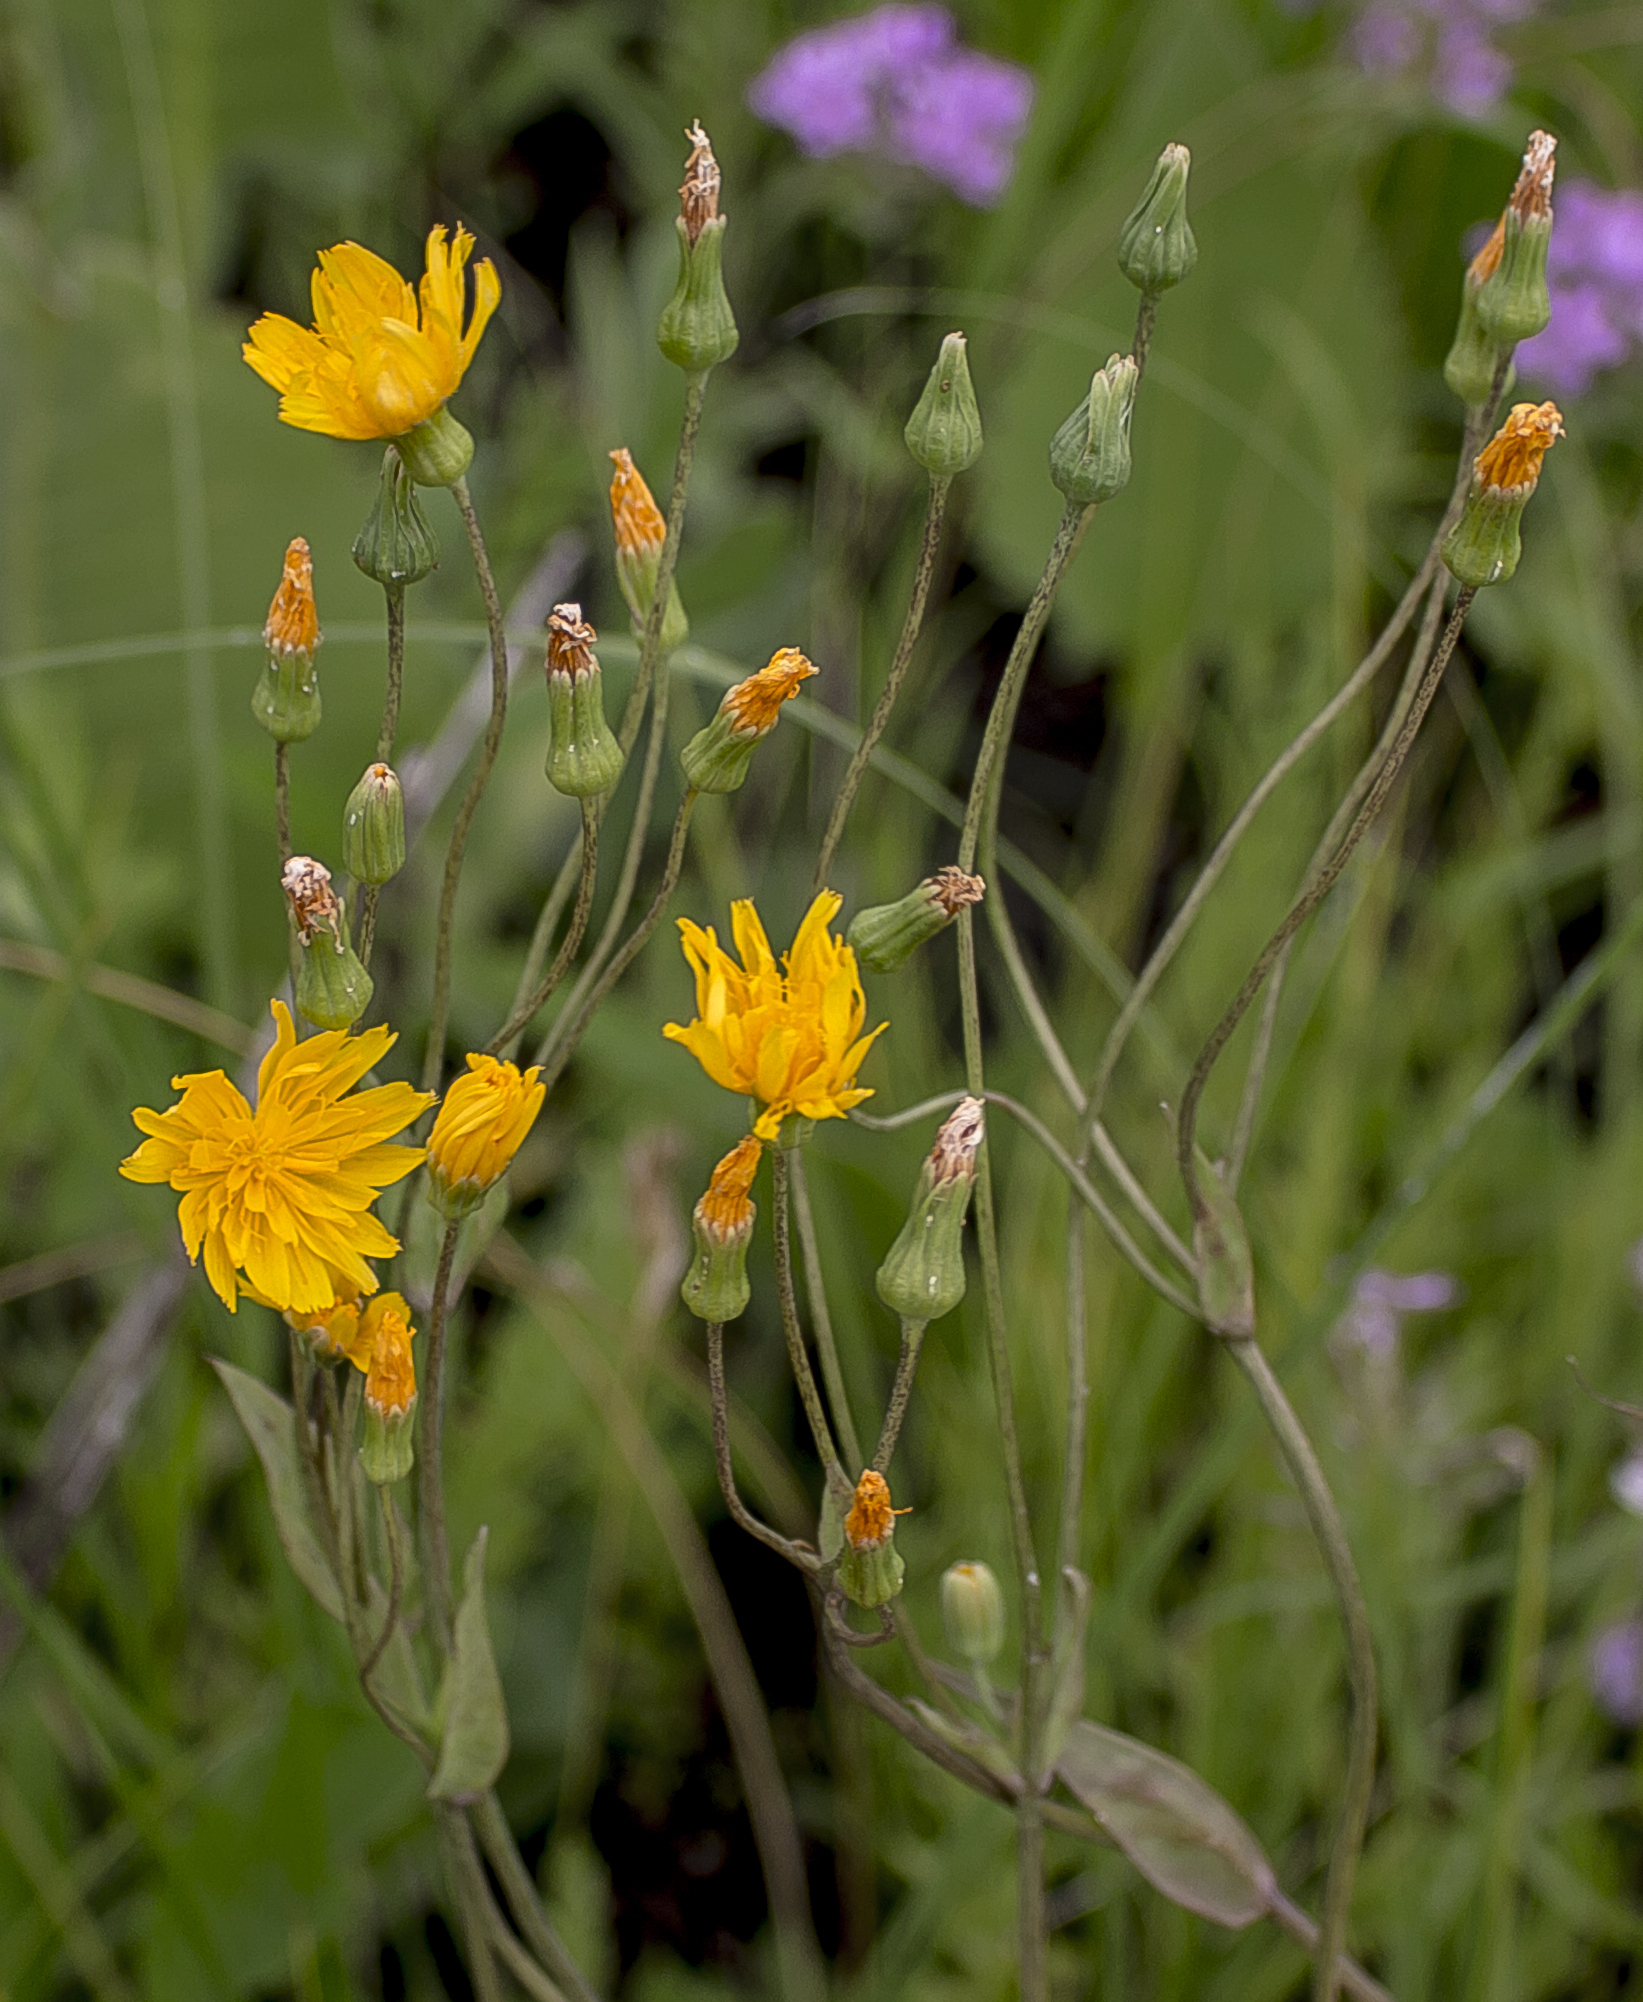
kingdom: Plantae
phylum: Tracheophyta
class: Magnoliopsida
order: Asterales
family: Asteraceae
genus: Krigia
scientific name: Krigia biflora
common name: Orange dwarf-dandelion
